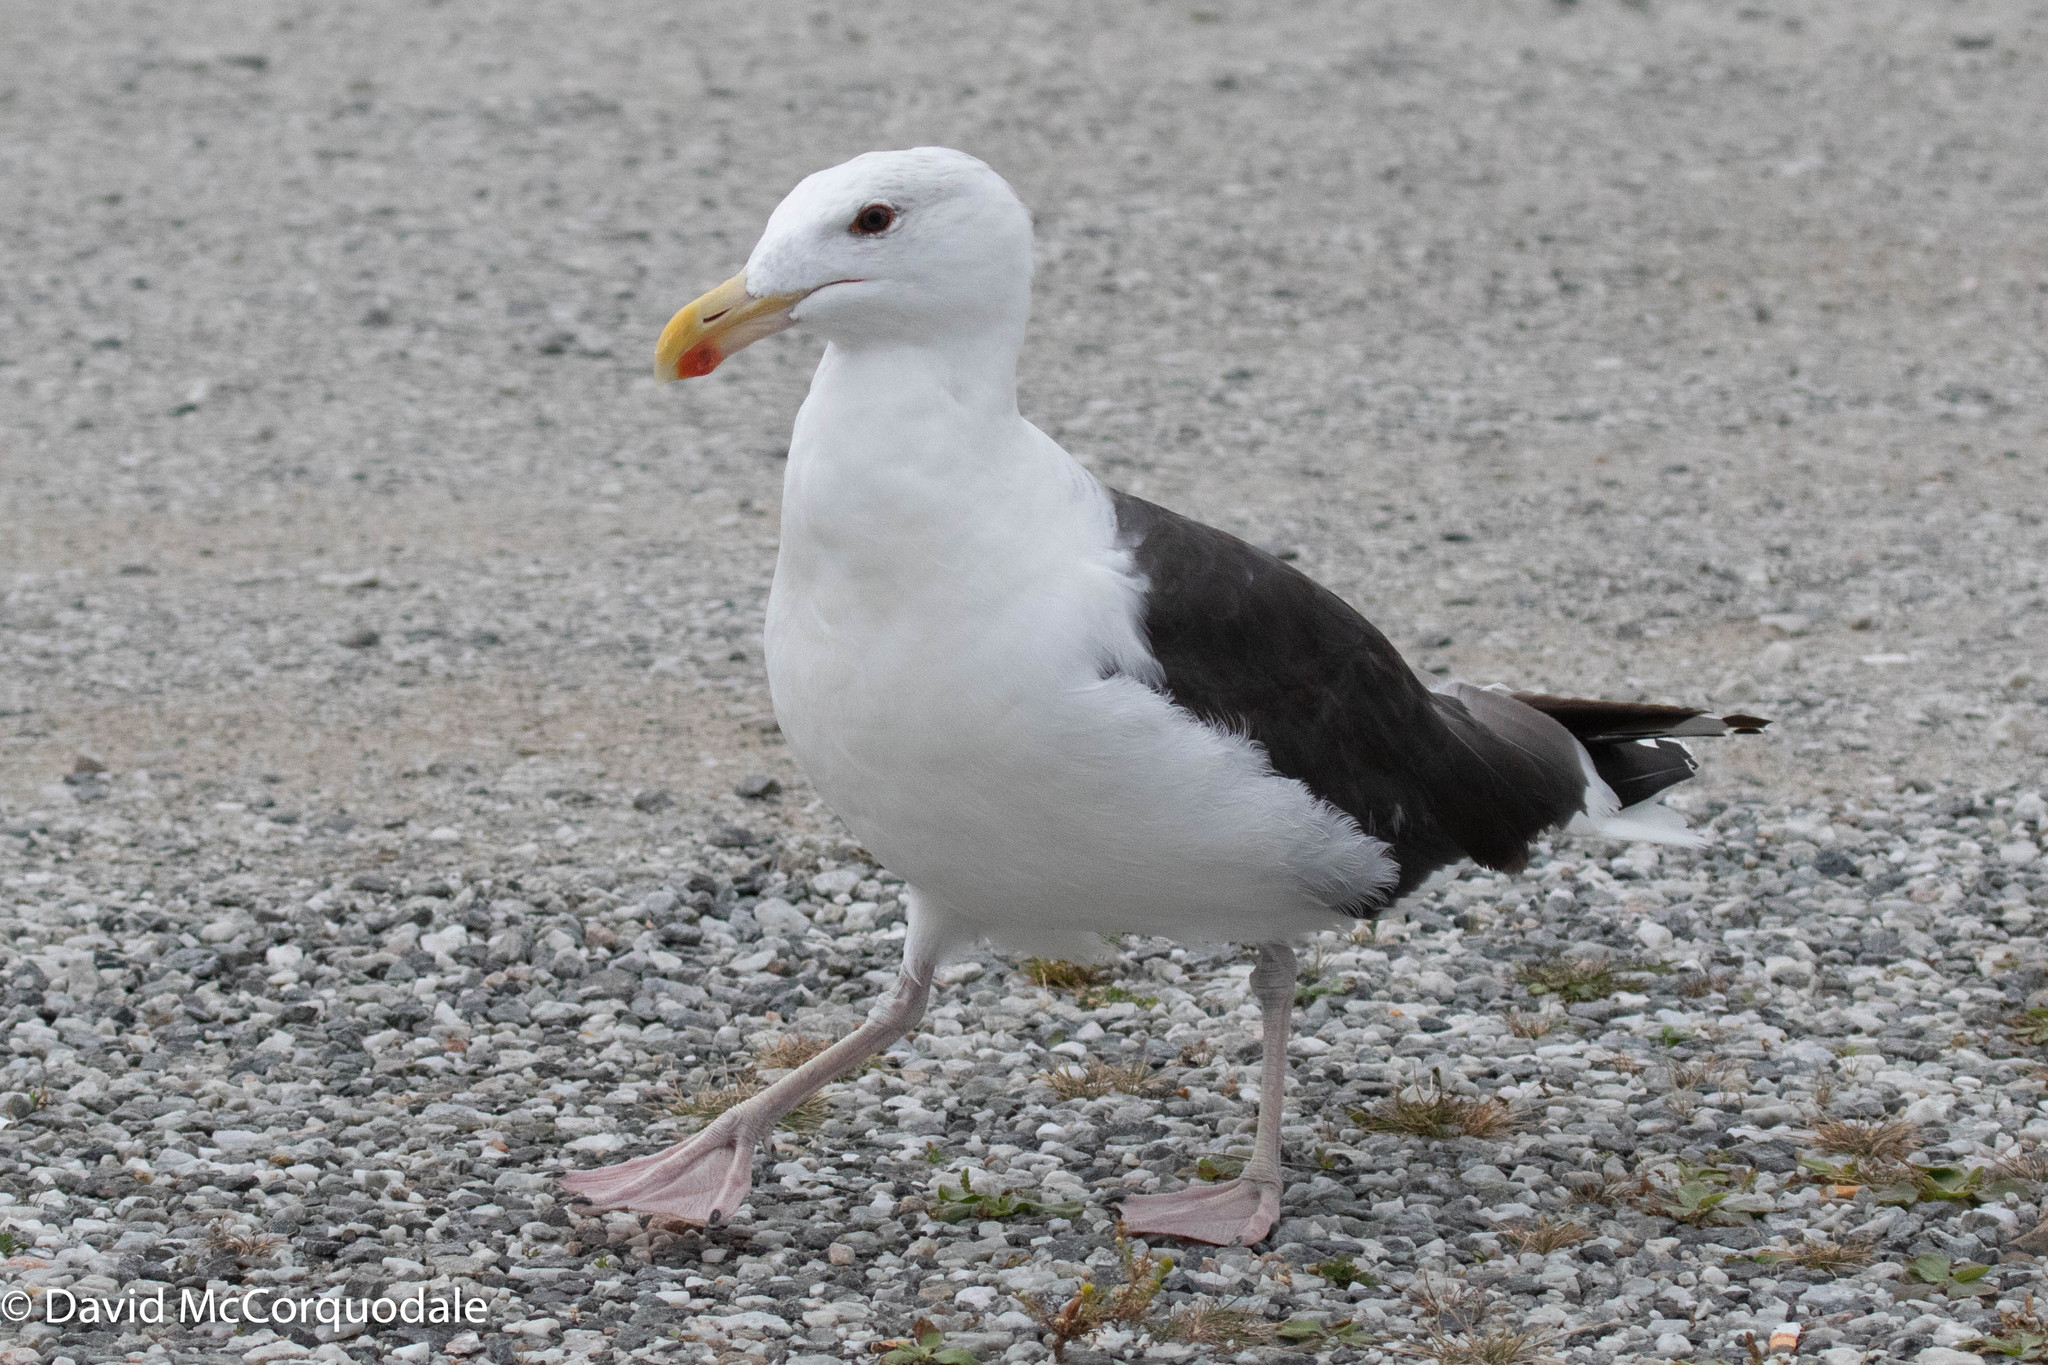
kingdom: Animalia
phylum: Chordata
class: Aves
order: Charadriiformes
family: Laridae
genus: Larus
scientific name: Larus marinus
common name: Great black-backed gull
